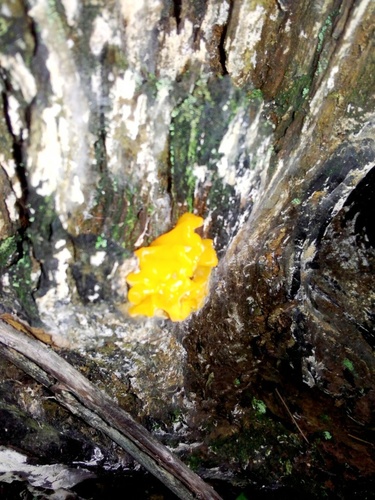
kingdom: Fungi
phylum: Basidiomycota
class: Dacrymycetes
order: Dacrymycetales
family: Dacrymycetaceae
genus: Dacrymyces
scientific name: Dacrymyces chrysospermus
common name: Orange jelly spot
